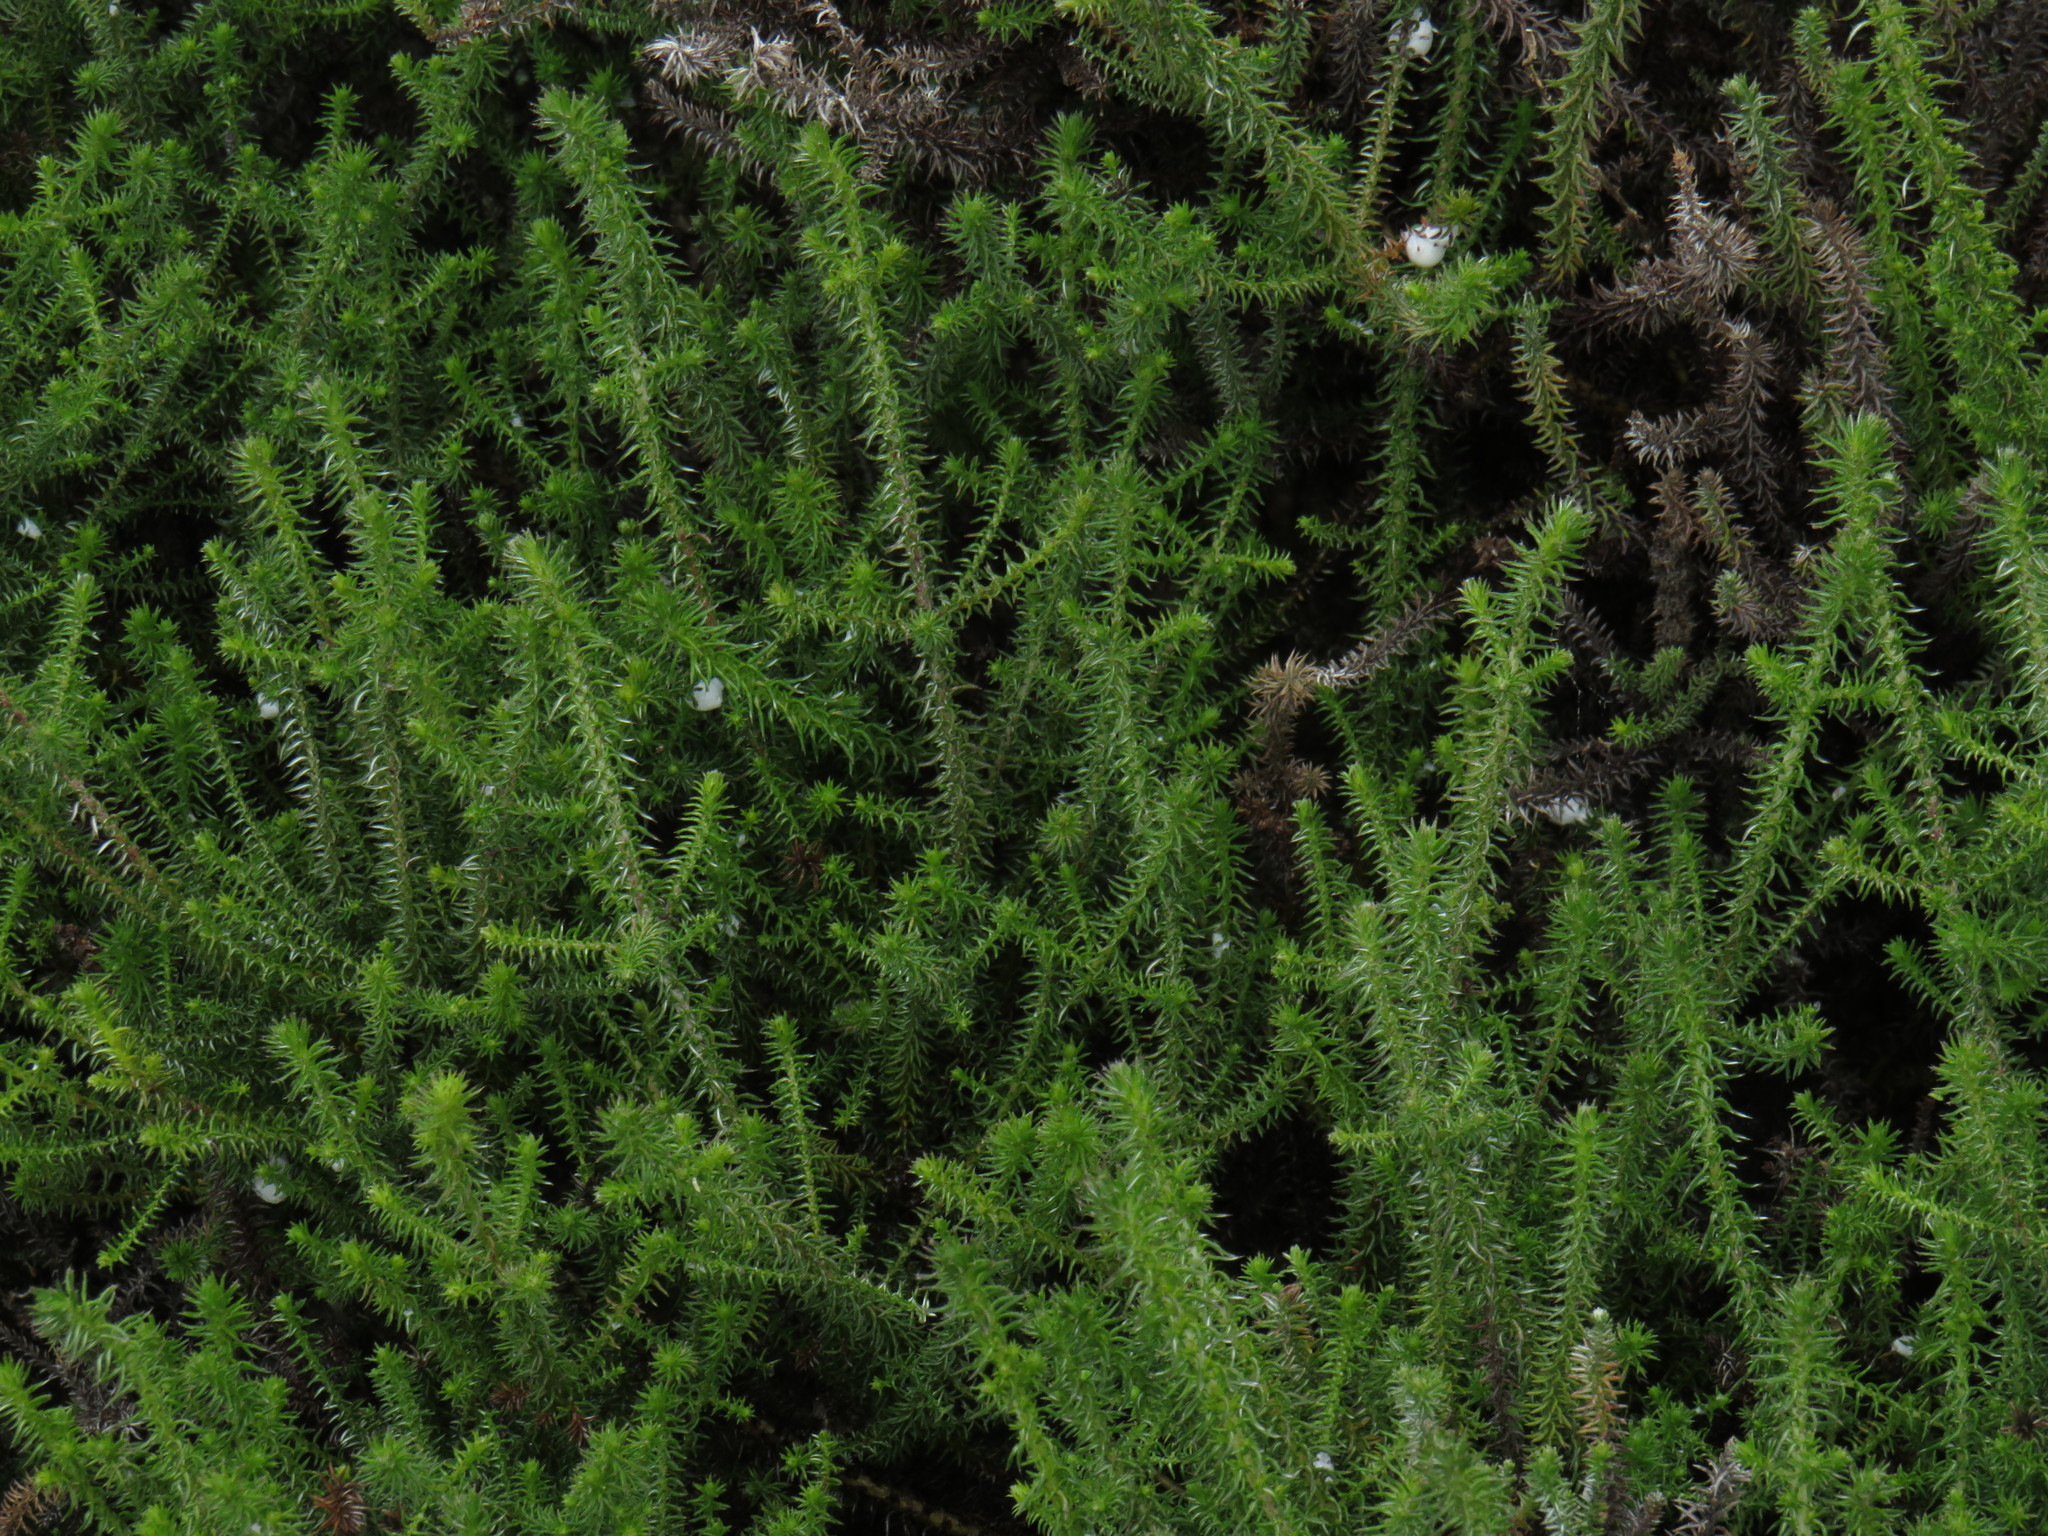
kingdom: Plantae
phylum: Tracheophyta
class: Magnoliopsida
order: Asterales
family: Asteraceae
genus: Seriphium
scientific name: Seriphium cinereum
